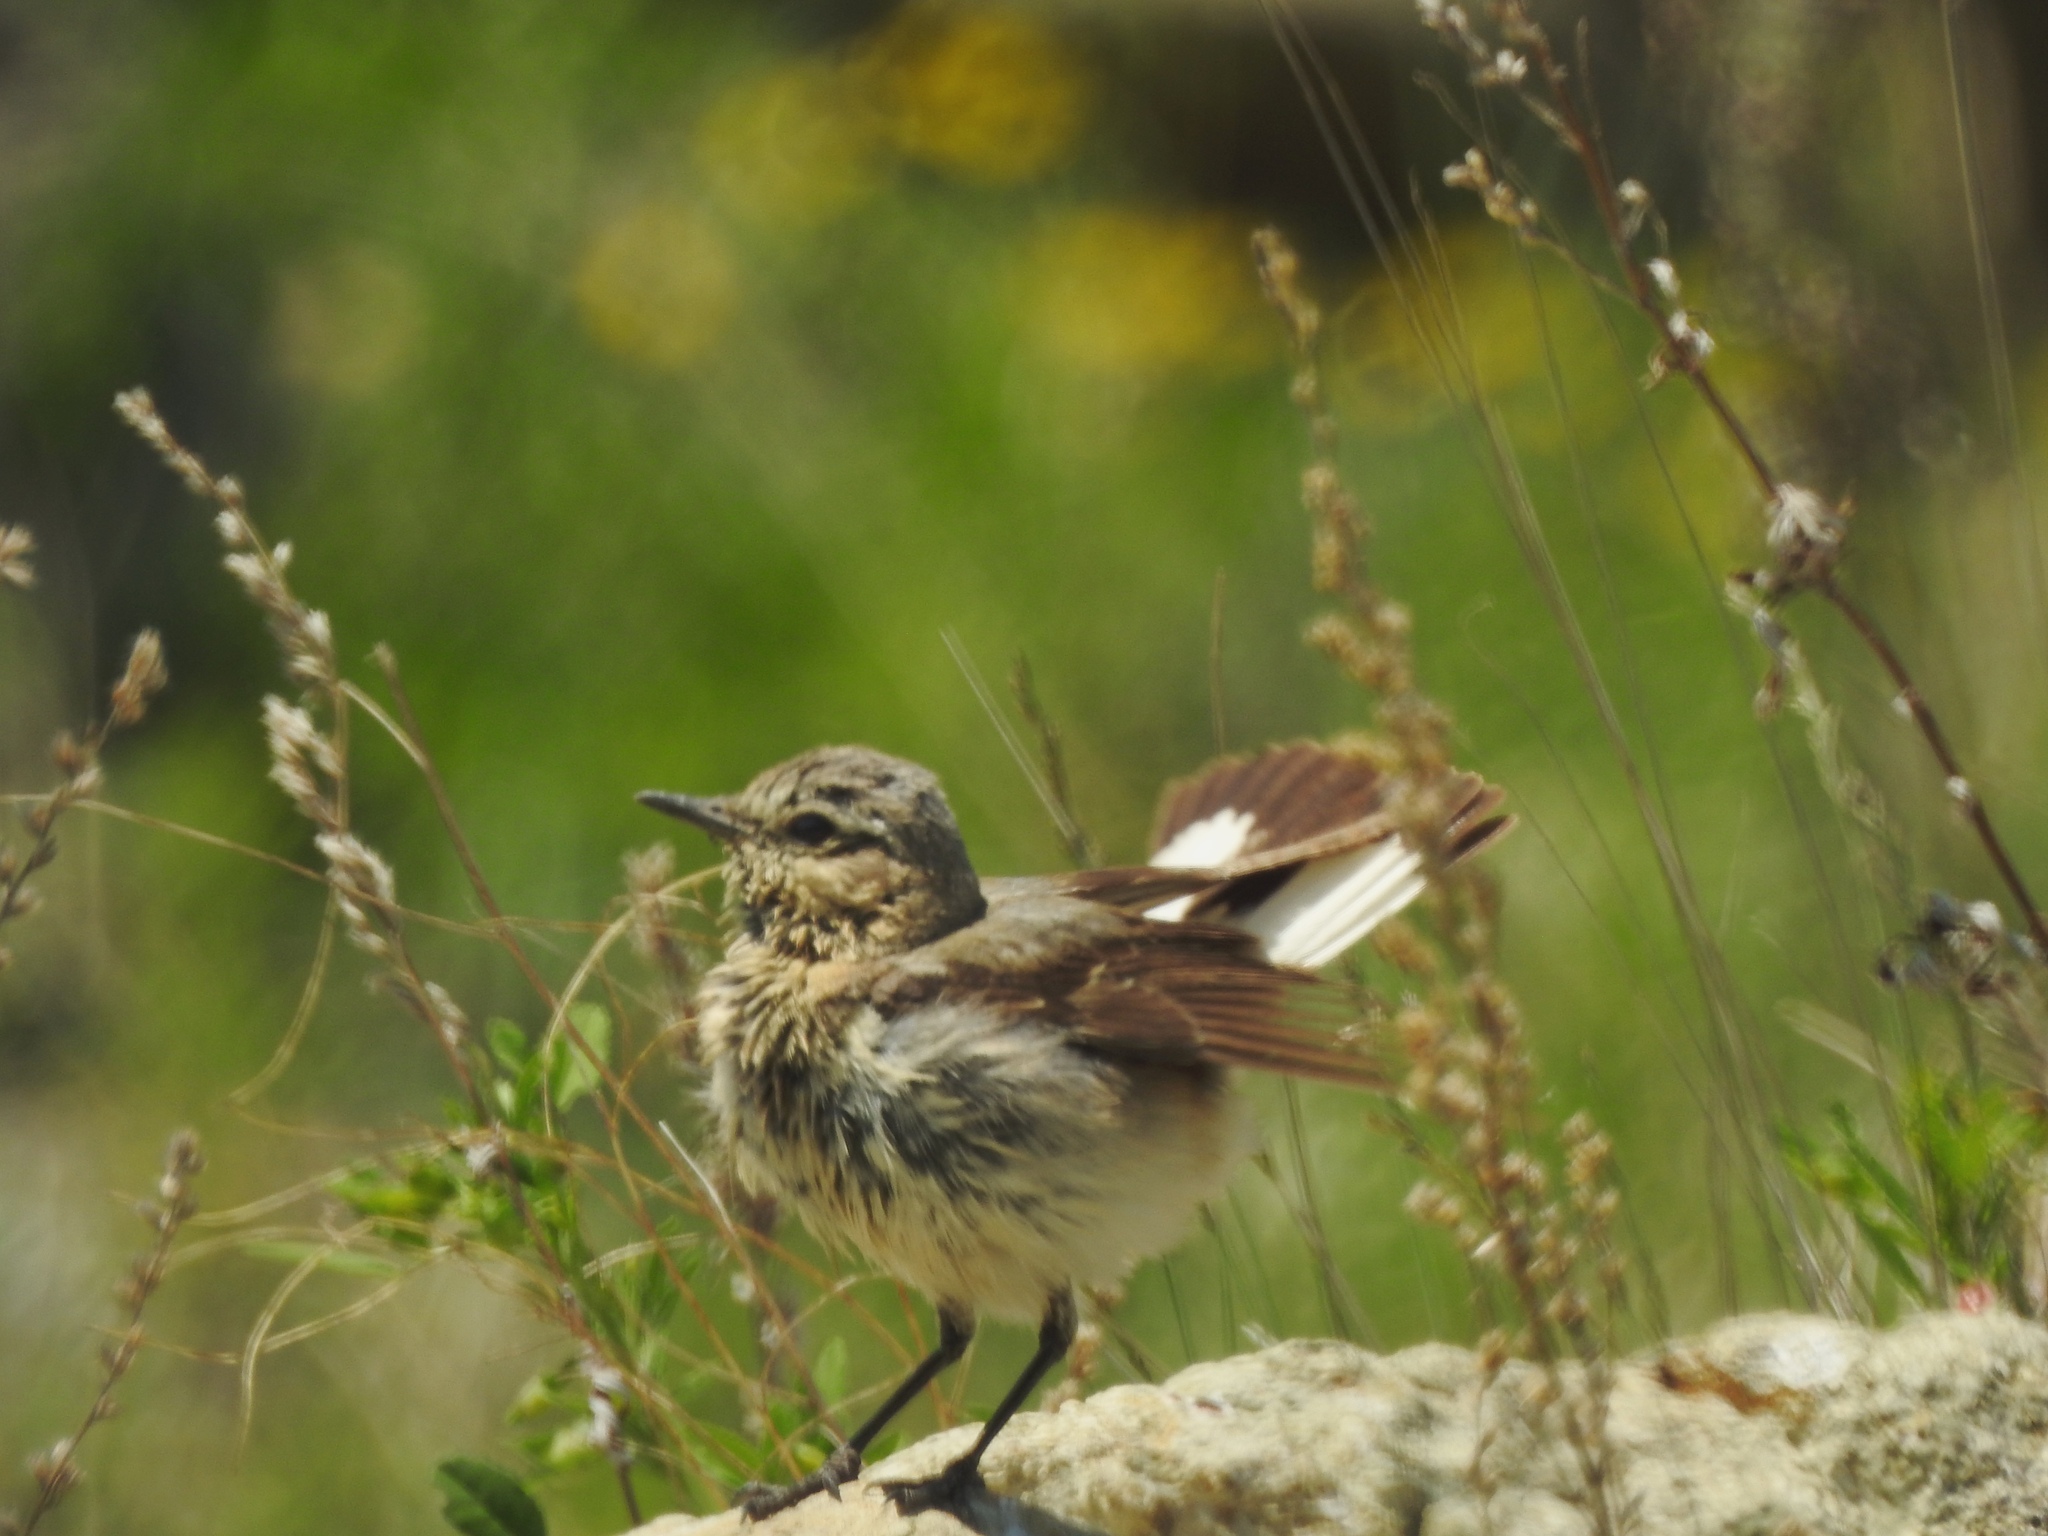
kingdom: Animalia
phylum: Chordata
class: Aves
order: Passeriformes
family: Muscicapidae
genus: Oenanthe
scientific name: Oenanthe oenanthe
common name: Northern wheatear
